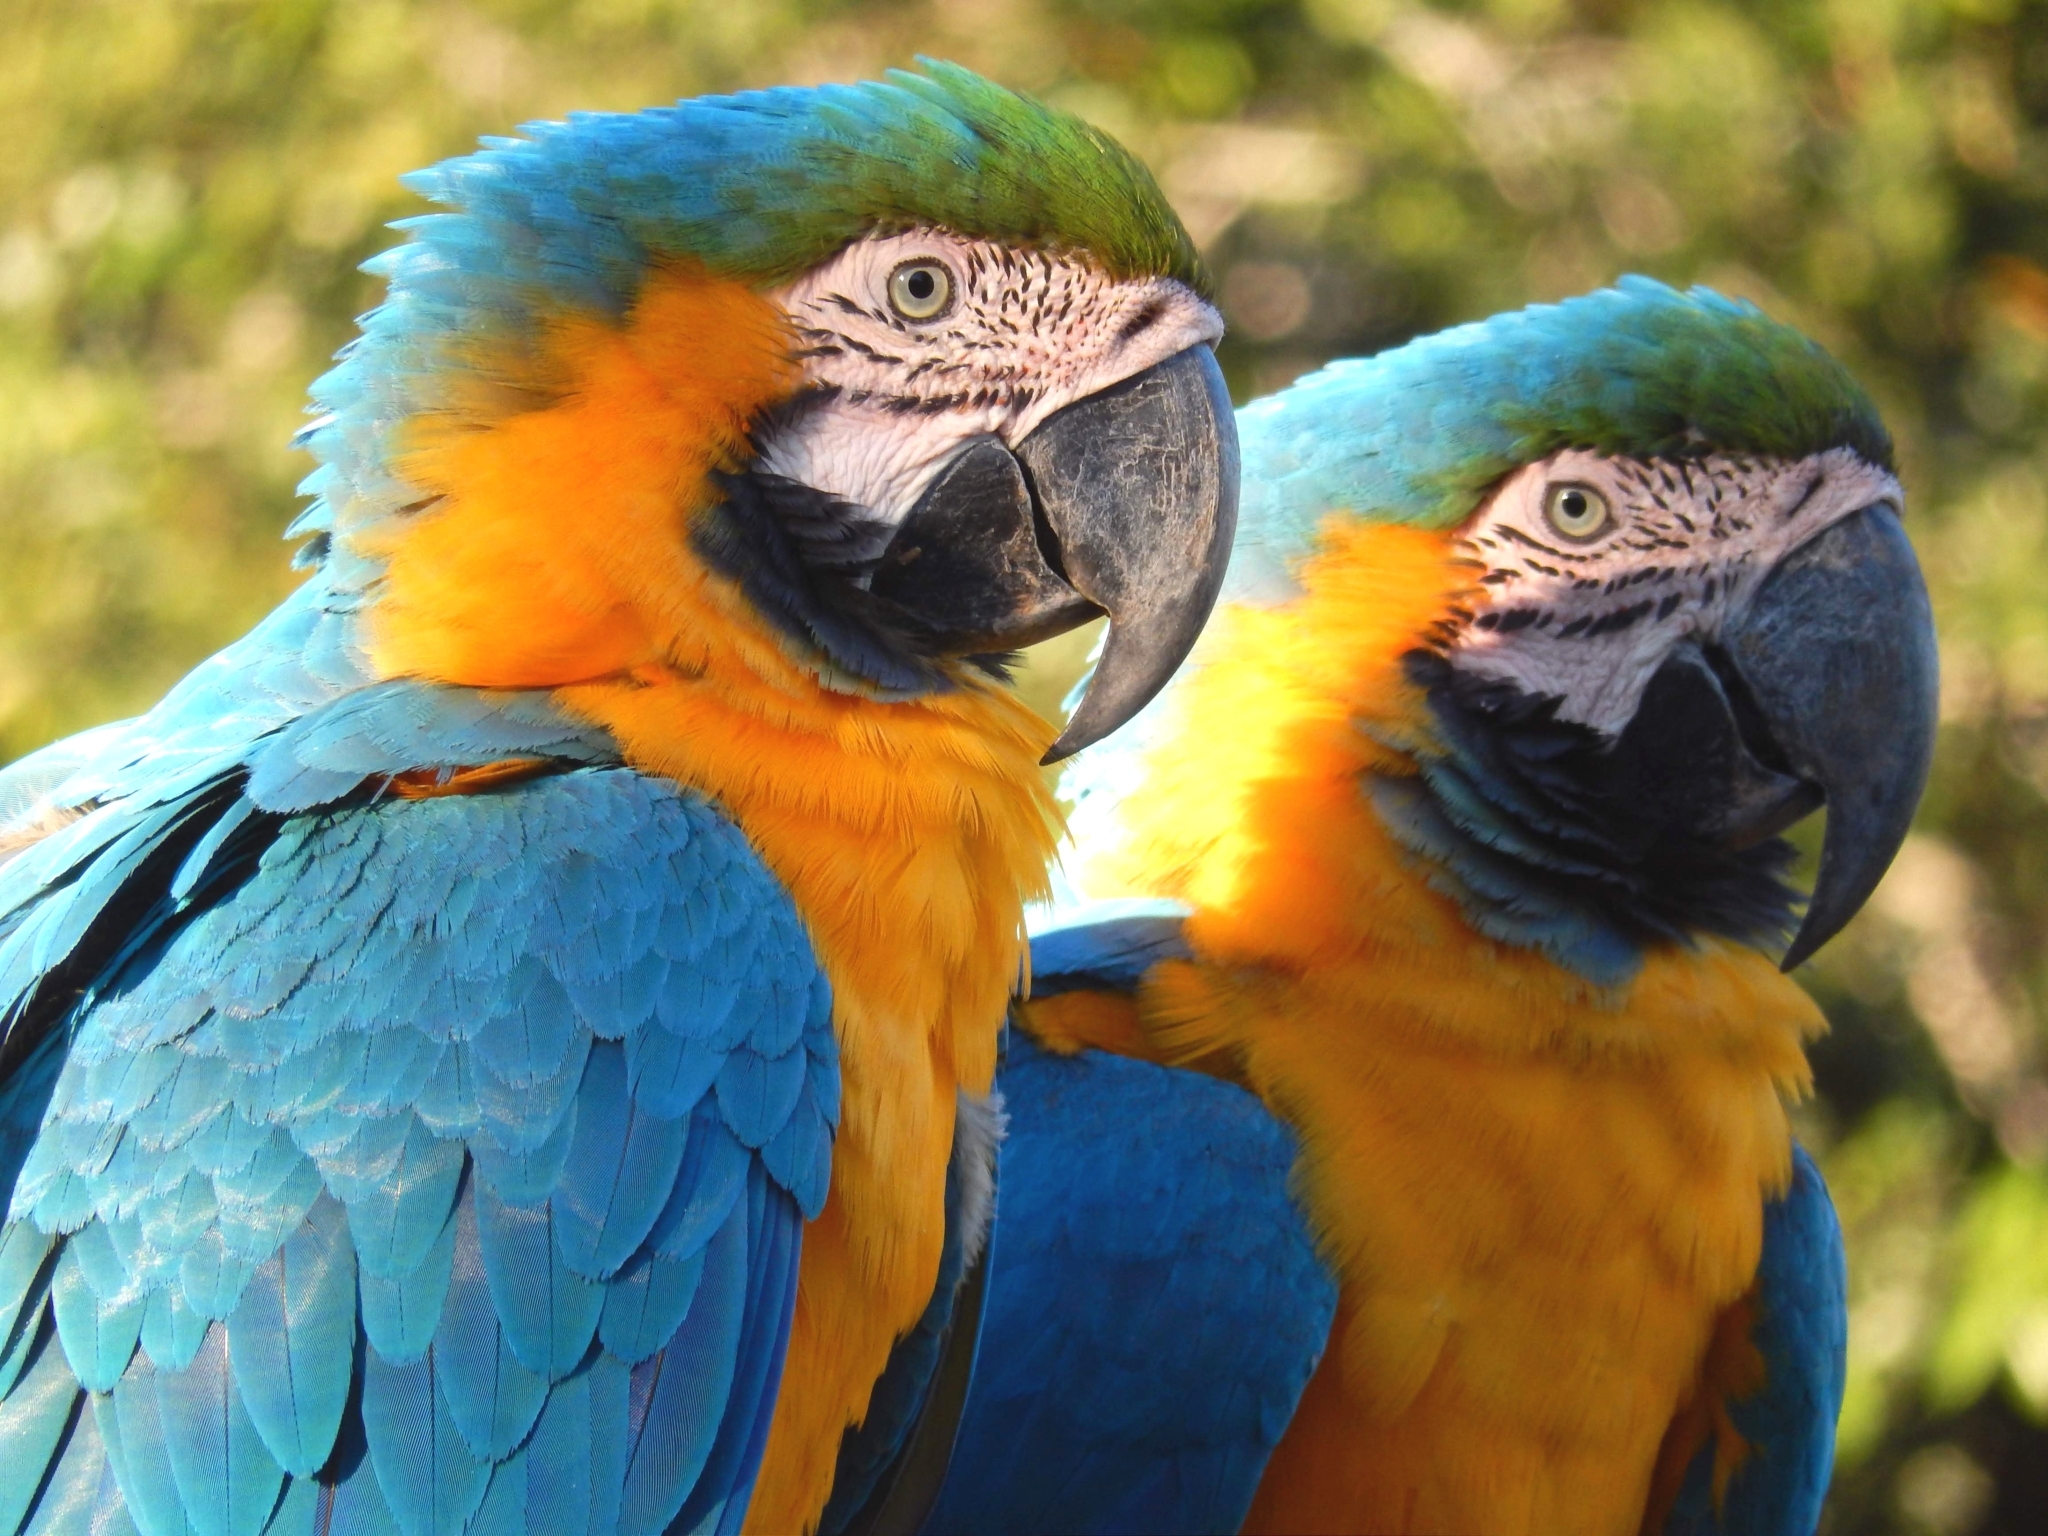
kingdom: Animalia
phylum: Chordata
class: Aves
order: Psittaciformes
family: Psittacidae
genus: Ara
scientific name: Ara ararauna
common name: Blue-and-yellow macaw
